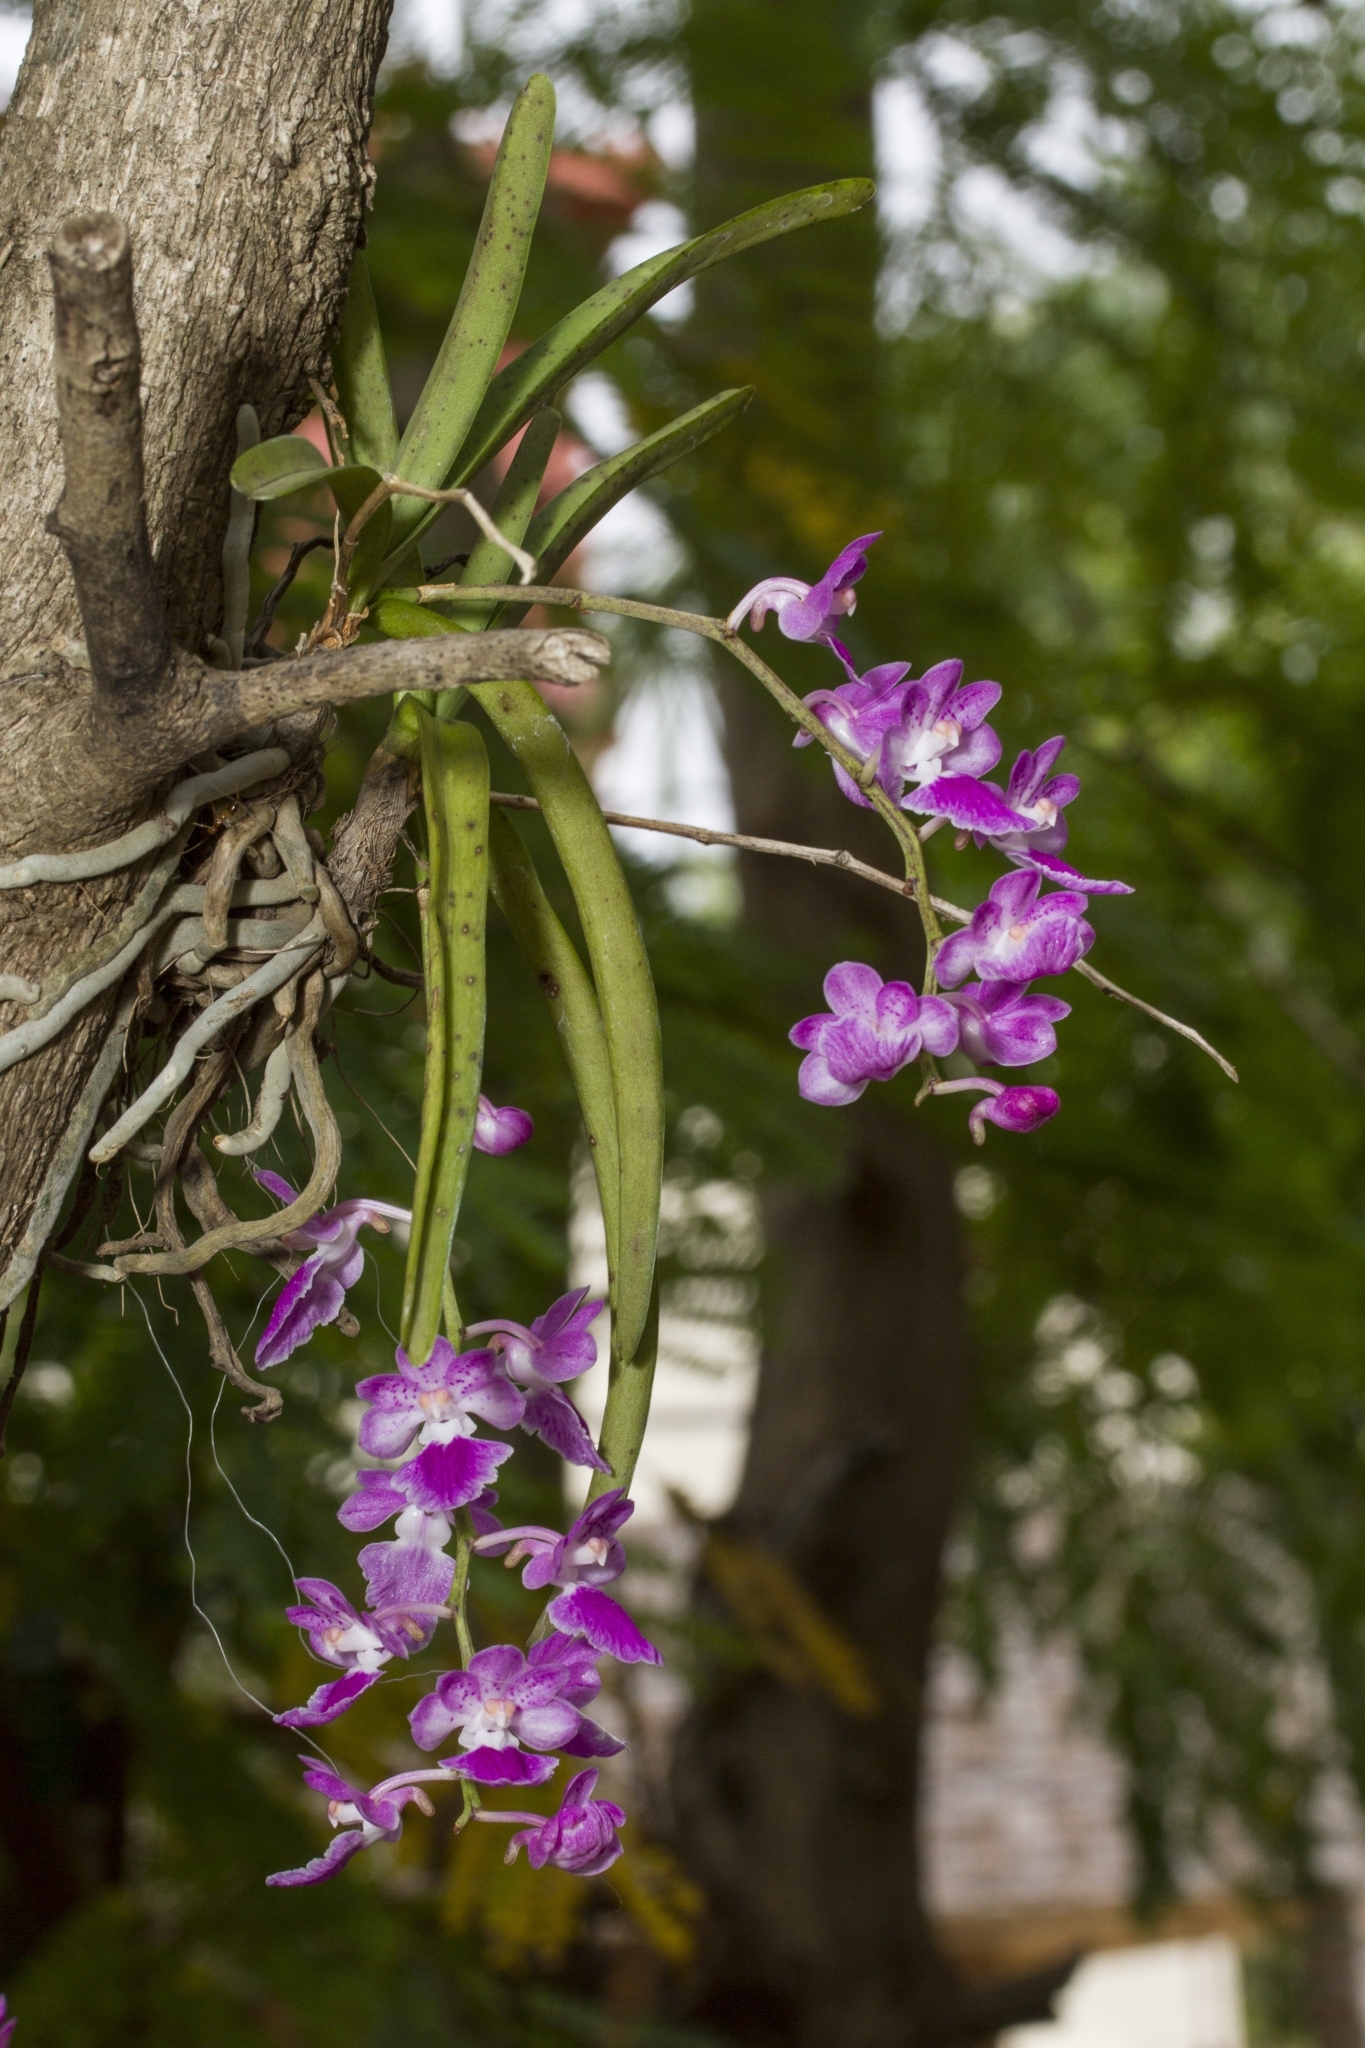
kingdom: Plantae
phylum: Tracheophyta
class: Liliopsida
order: Asparagales
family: Orchidaceae
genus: Aerides
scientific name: Aerides maculosa
